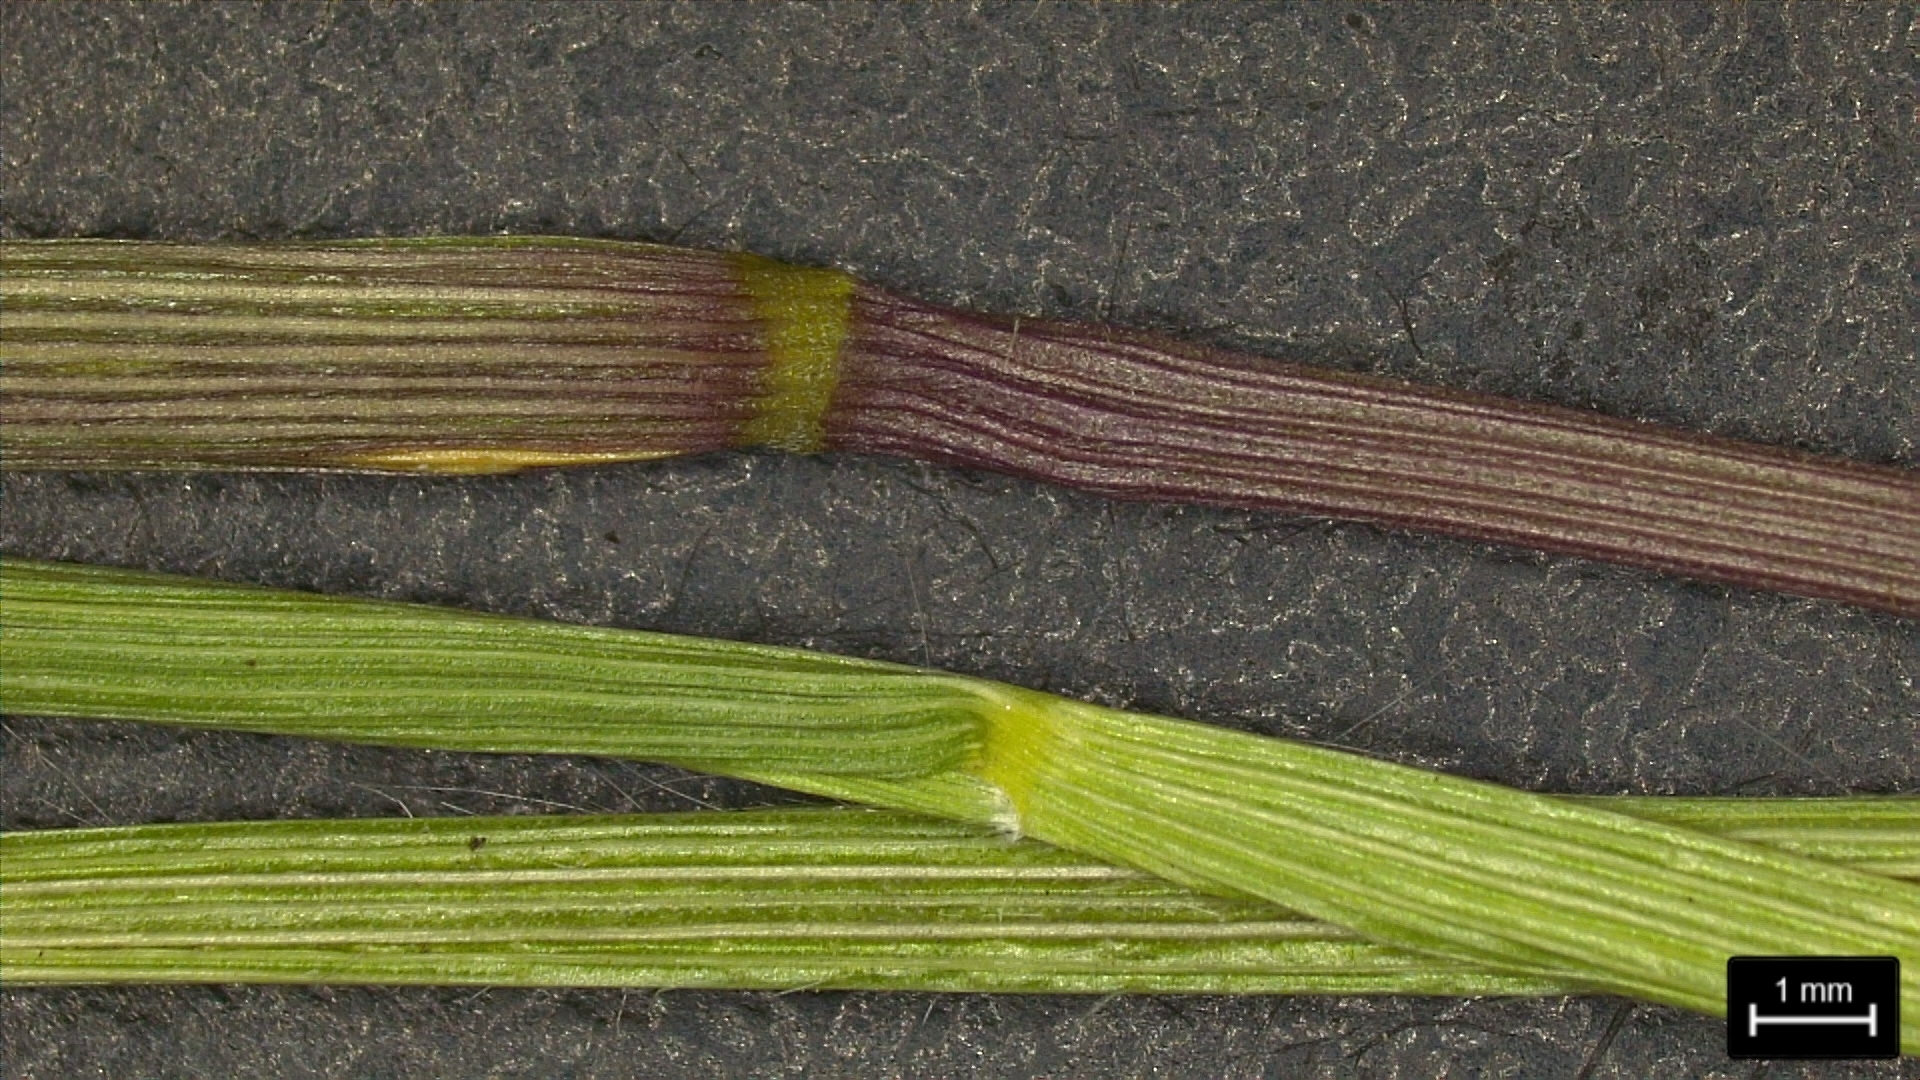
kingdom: Plantae
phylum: Tracheophyta
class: Liliopsida
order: Poales
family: Poaceae
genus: Dichanthelium
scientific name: Dichanthelium neuranthum
